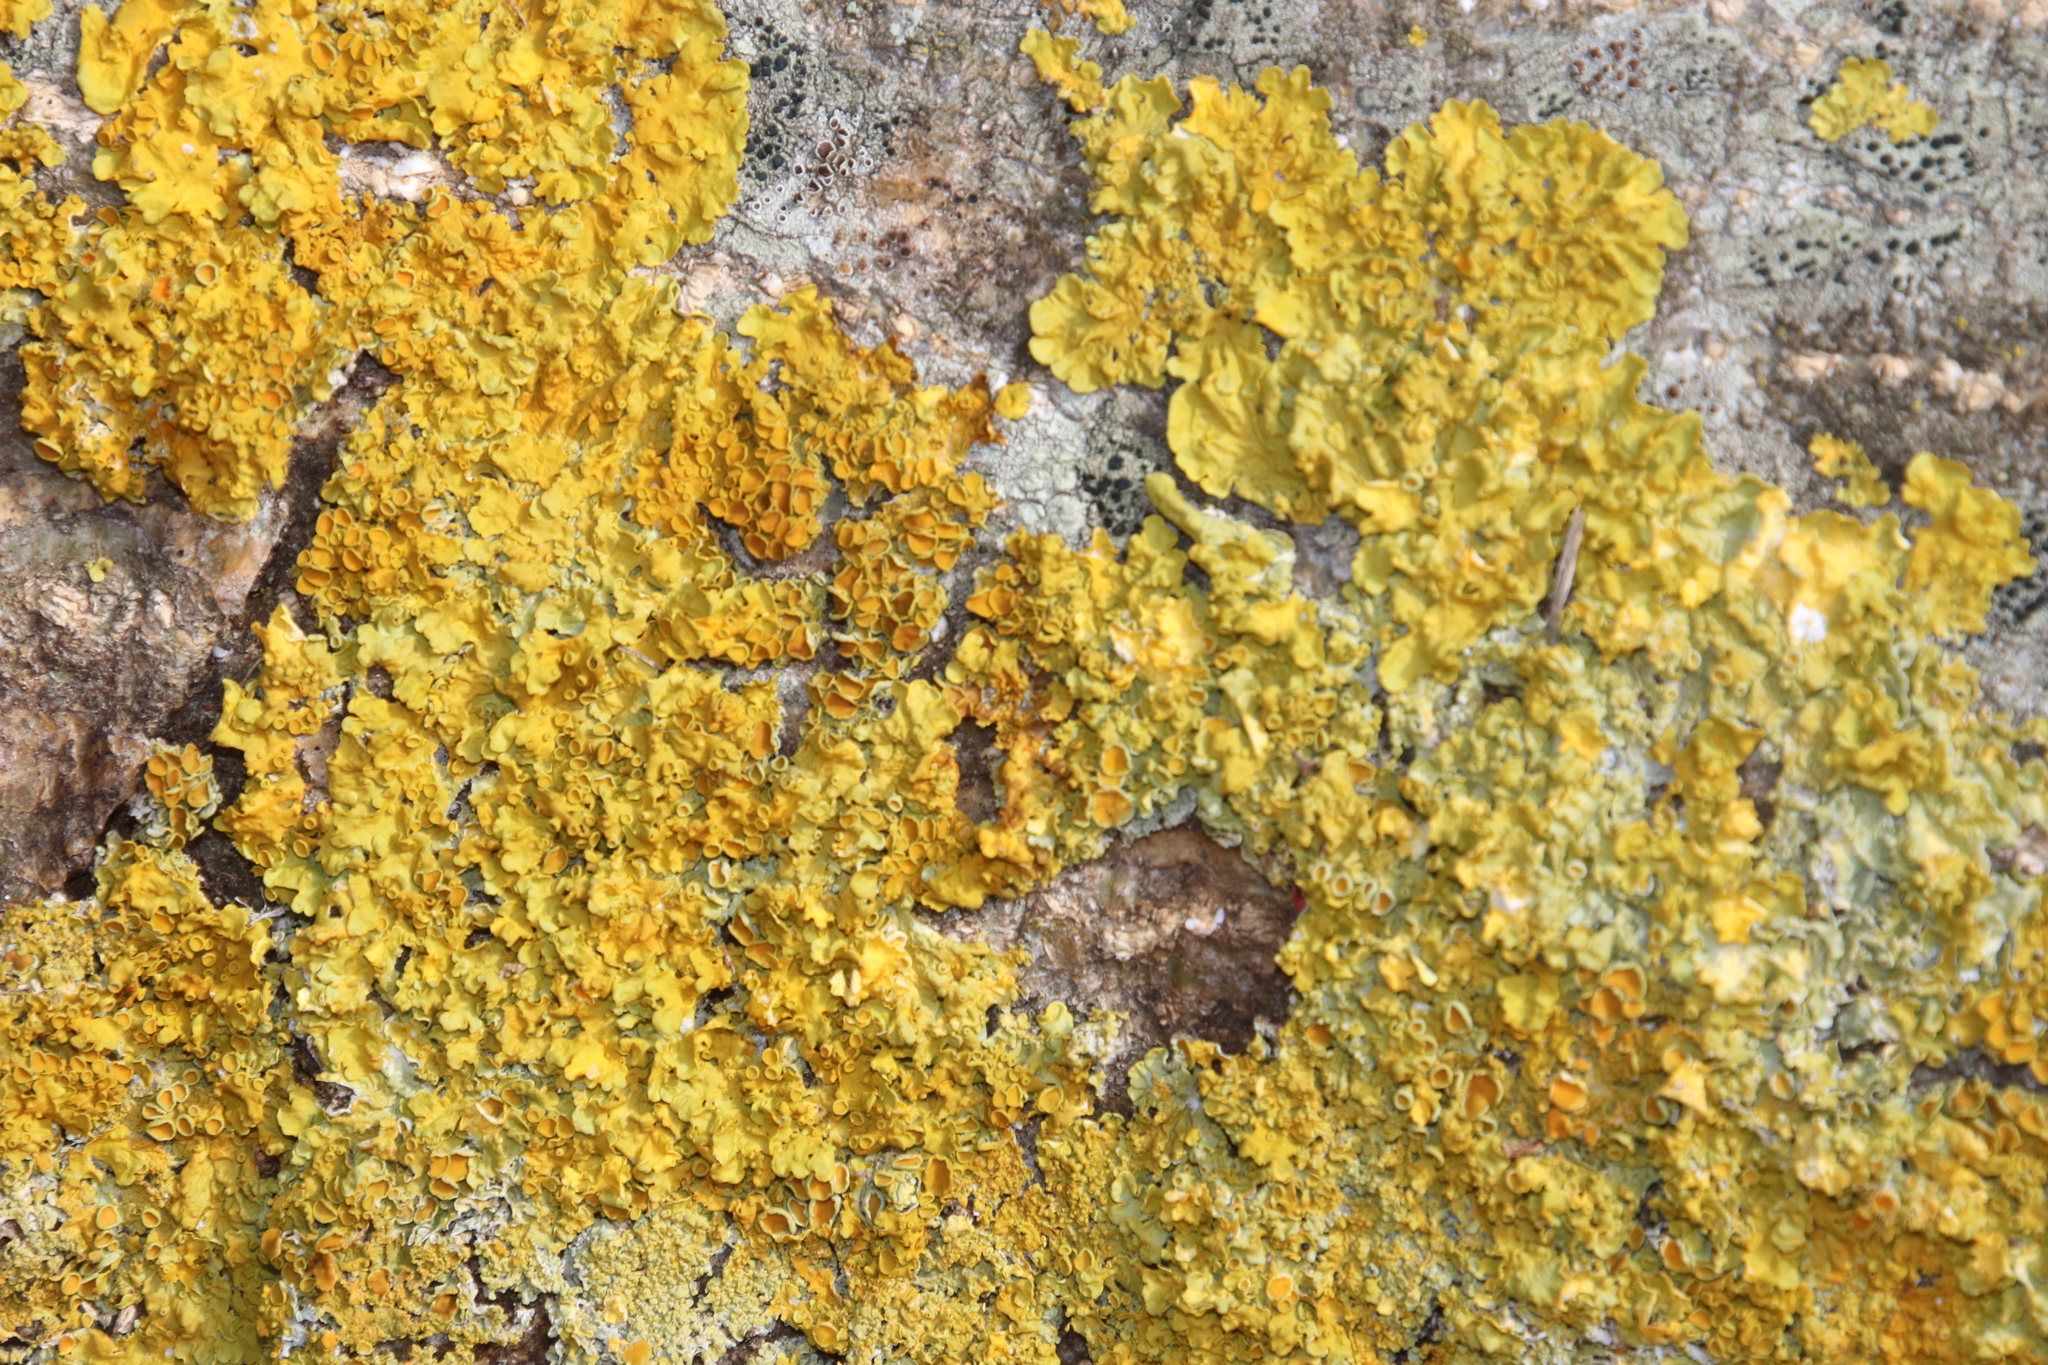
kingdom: Fungi
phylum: Ascomycota
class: Lecanoromycetes
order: Teloschistales
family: Teloschistaceae
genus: Xanthoria
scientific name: Xanthoria parietina
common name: Common orange lichen
